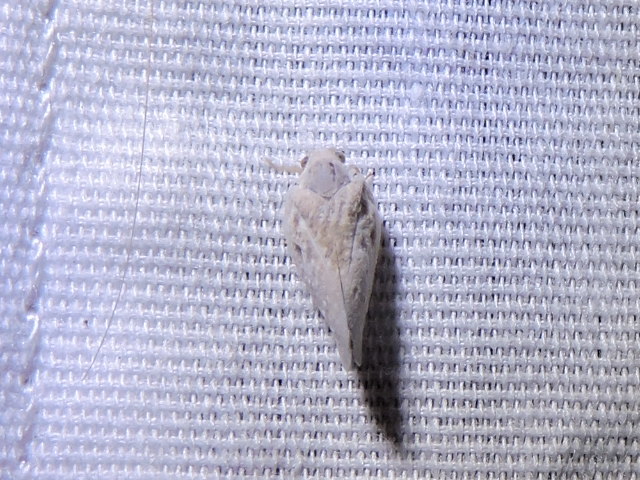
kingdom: Animalia
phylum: Arthropoda
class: Insecta
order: Hemiptera
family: Flatidae
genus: Metcalfa
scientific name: Metcalfa pruinosa
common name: Citrus flatid planthopper
